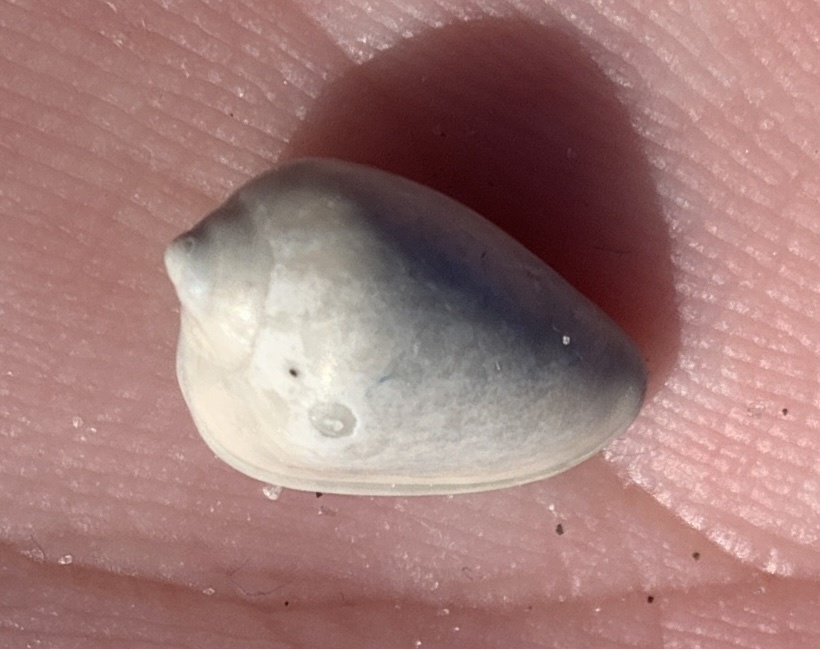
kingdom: Animalia
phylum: Mollusca
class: Gastropoda
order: Neogastropoda
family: Marginellidae
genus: Prunum
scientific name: Prunum apicinum
